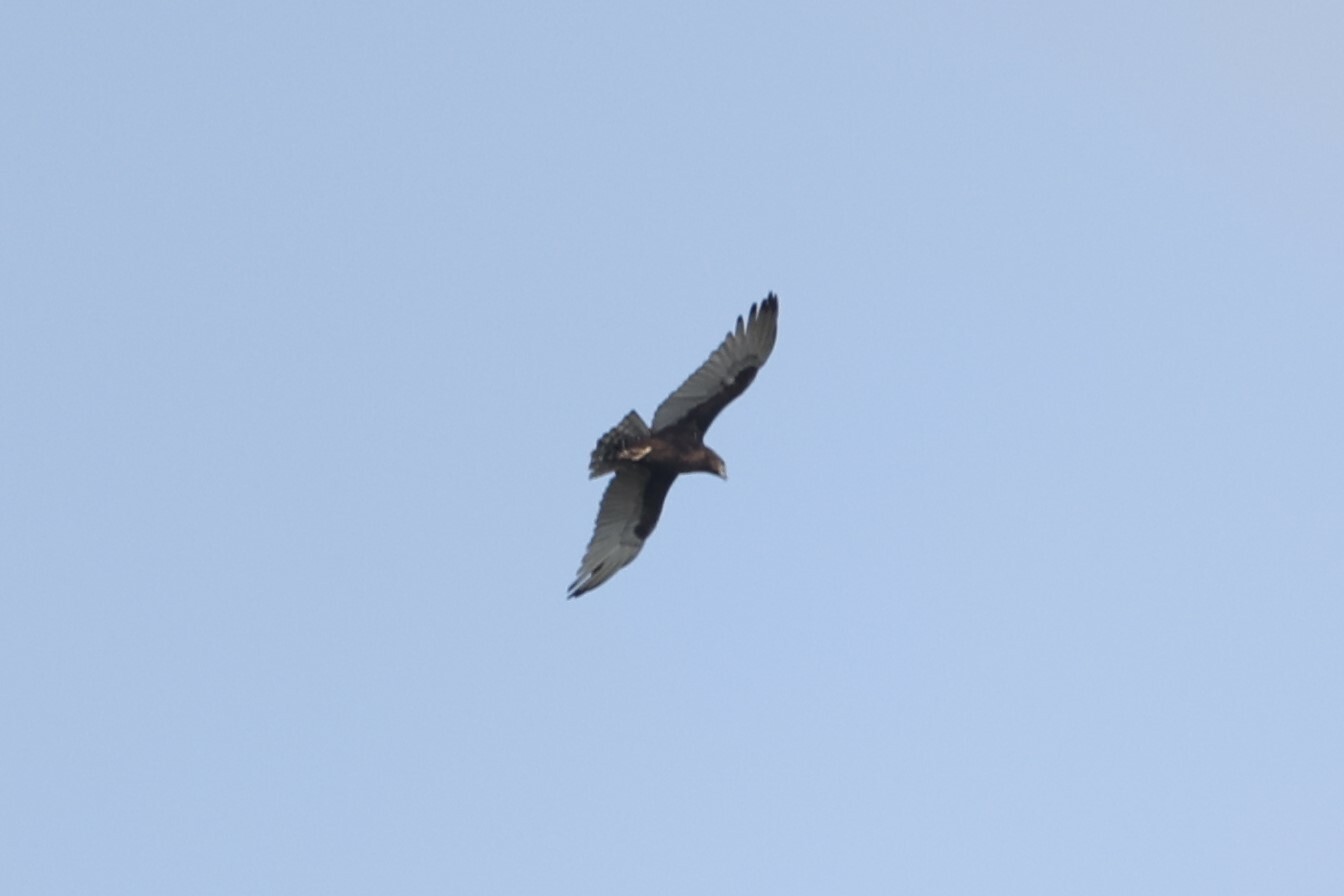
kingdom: Animalia
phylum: Chordata
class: Aves
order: Accipitriformes
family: Accipitridae
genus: Circaetus
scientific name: Circaetus cinereus
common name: Brown snake eagle
